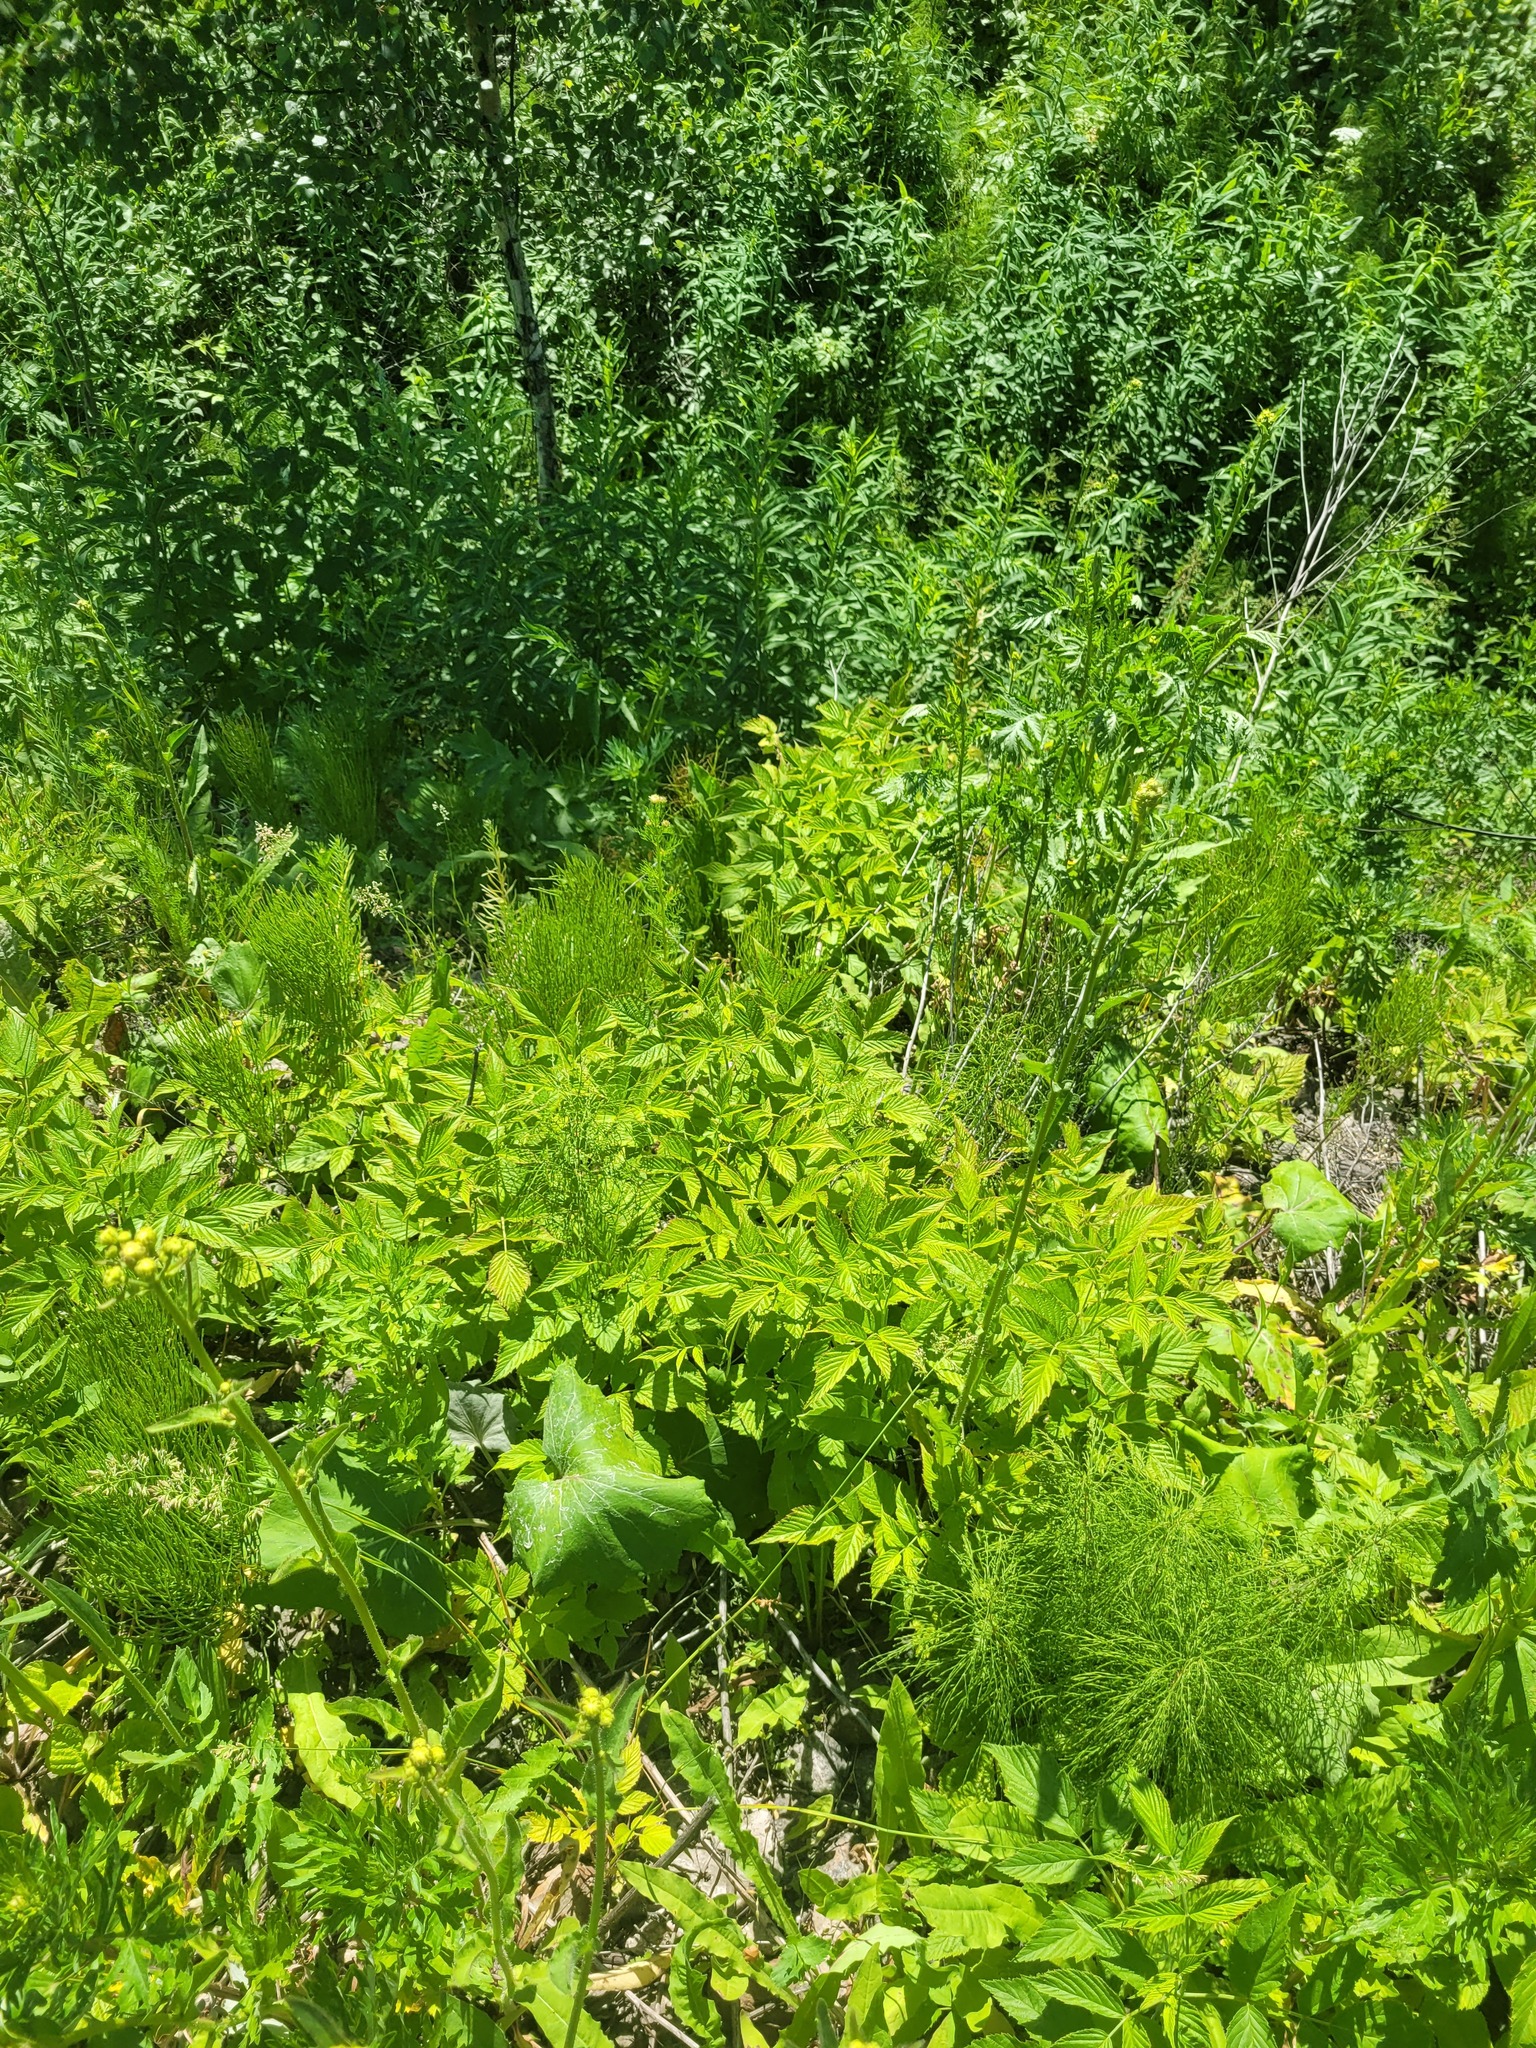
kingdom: Plantae
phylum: Tracheophyta
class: Magnoliopsida
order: Rosales
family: Rosaceae
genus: Rubus
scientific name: Rubus idaeus
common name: Raspberry
